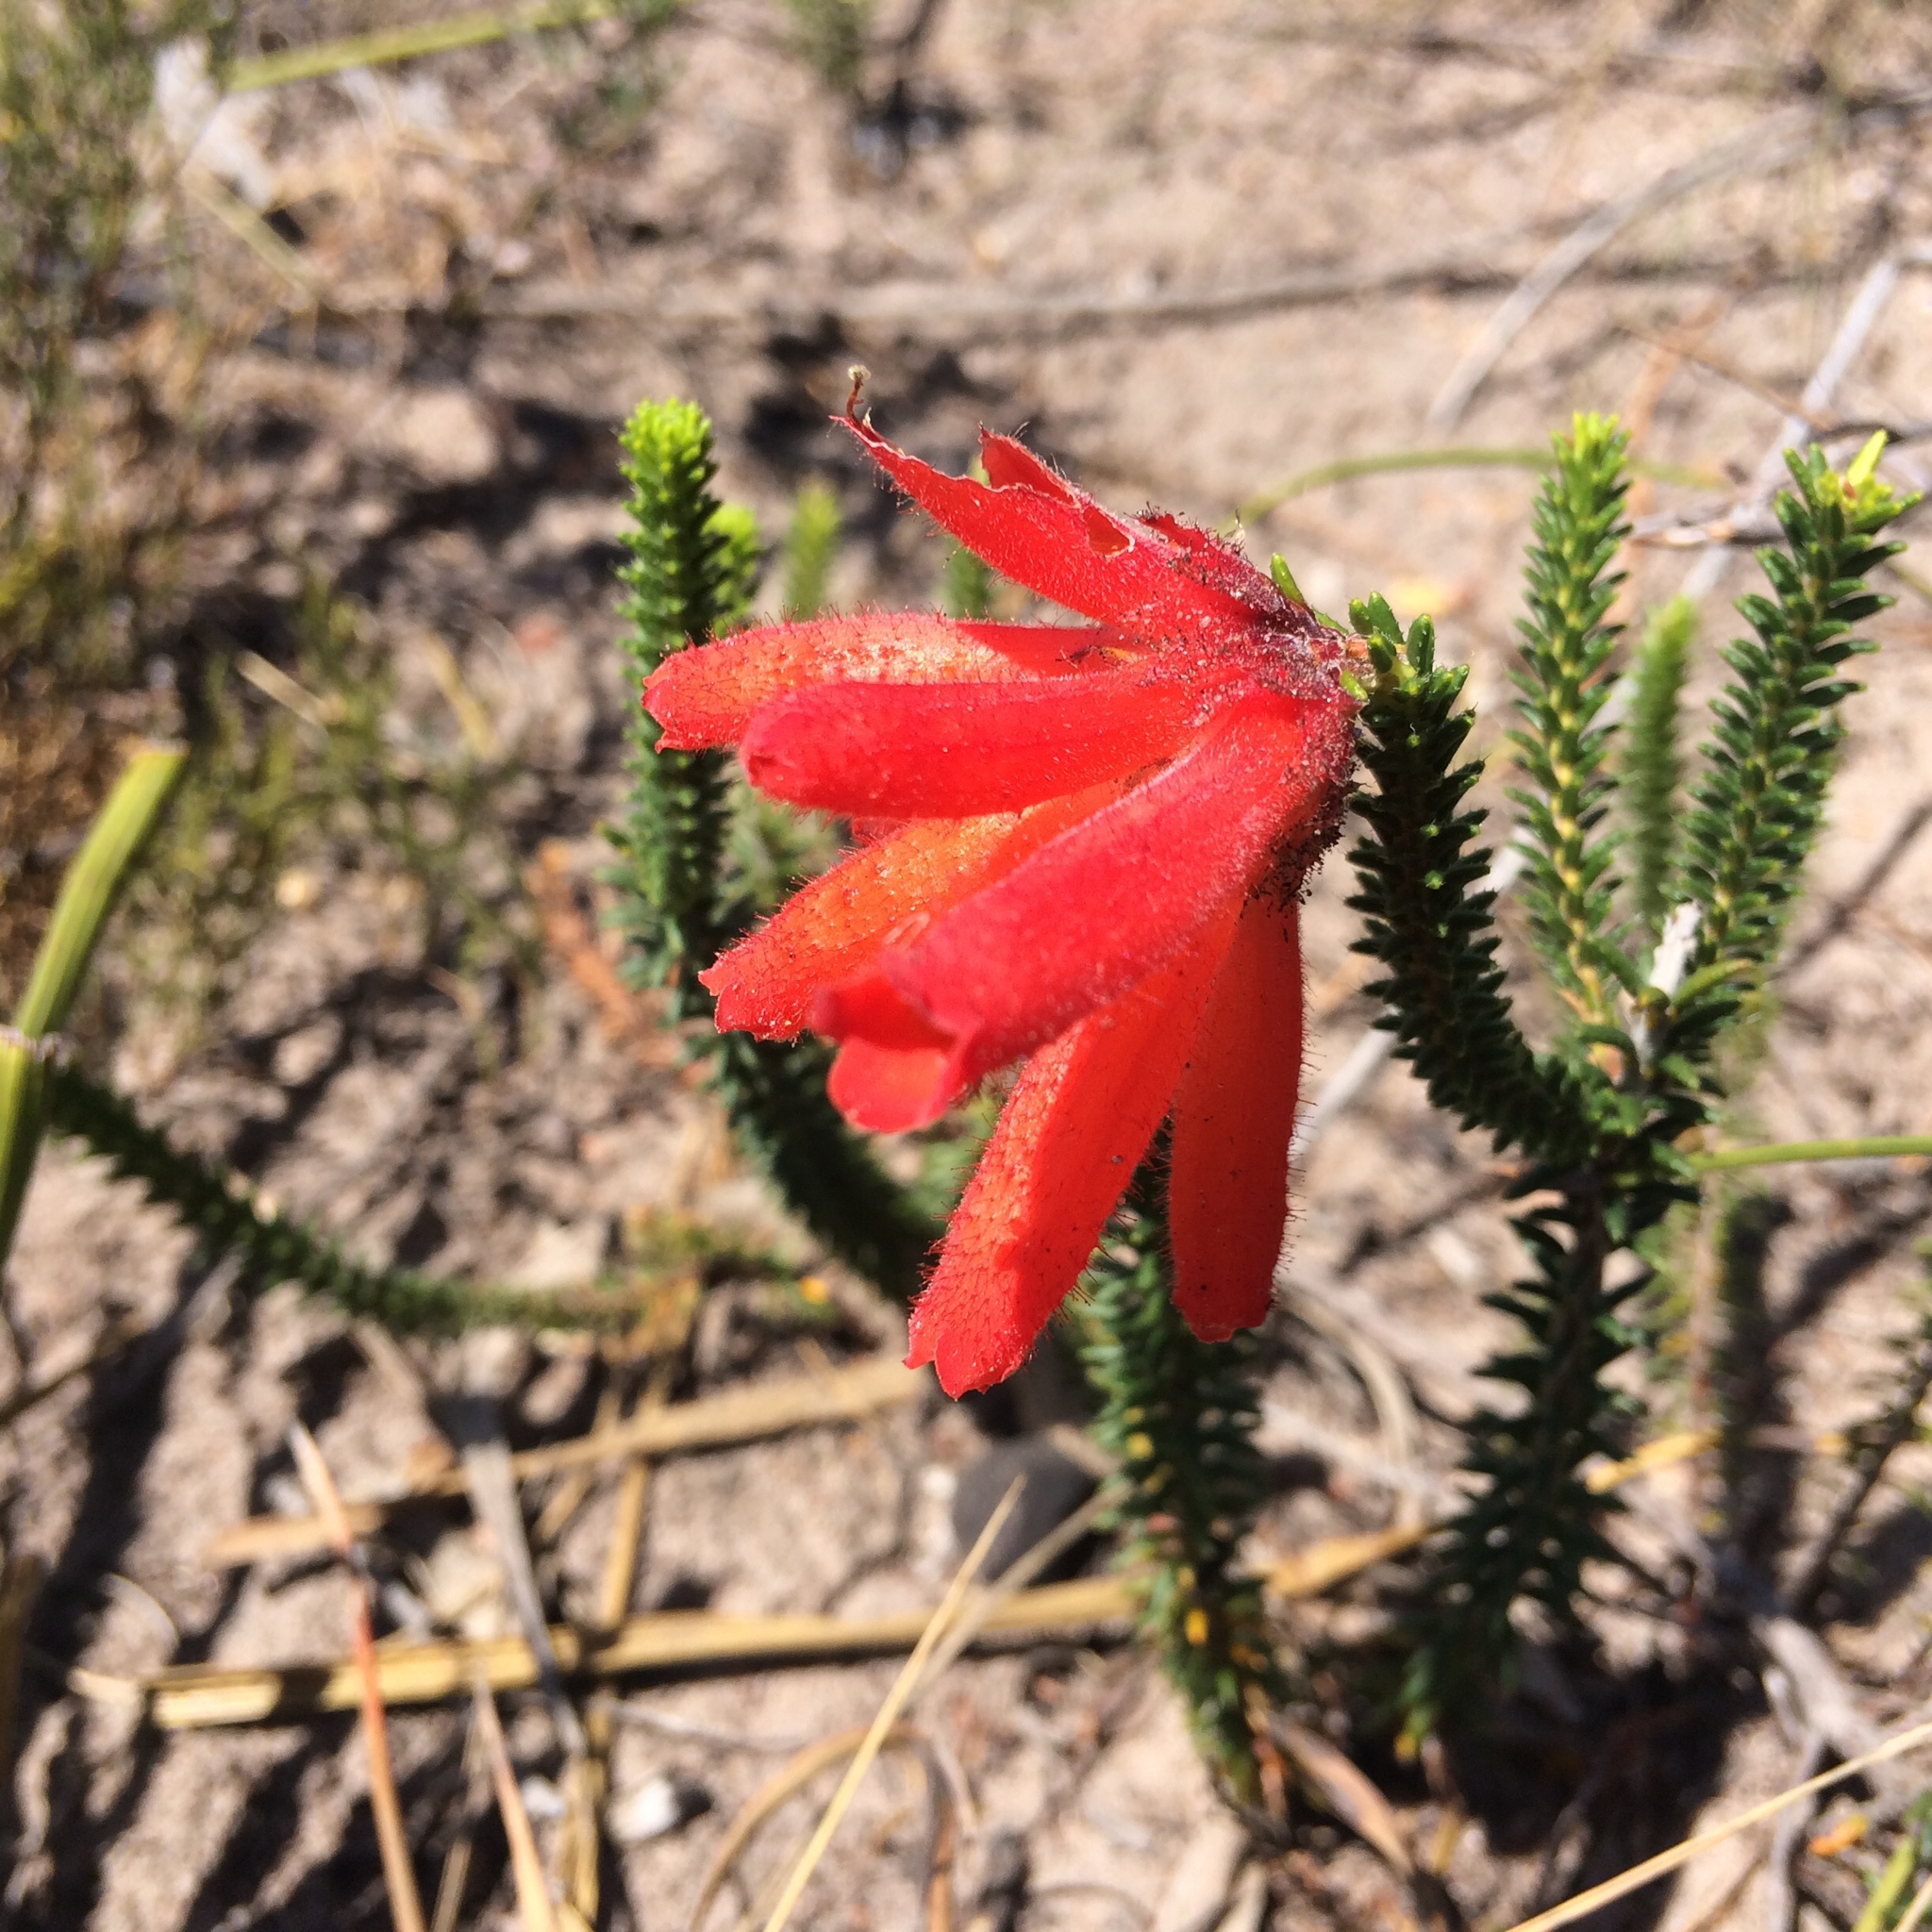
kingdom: Plantae
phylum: Tracheophyta
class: Magnoliopsida
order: Ericales
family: Ericaceae
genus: Erica
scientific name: Erica cerinthoides
